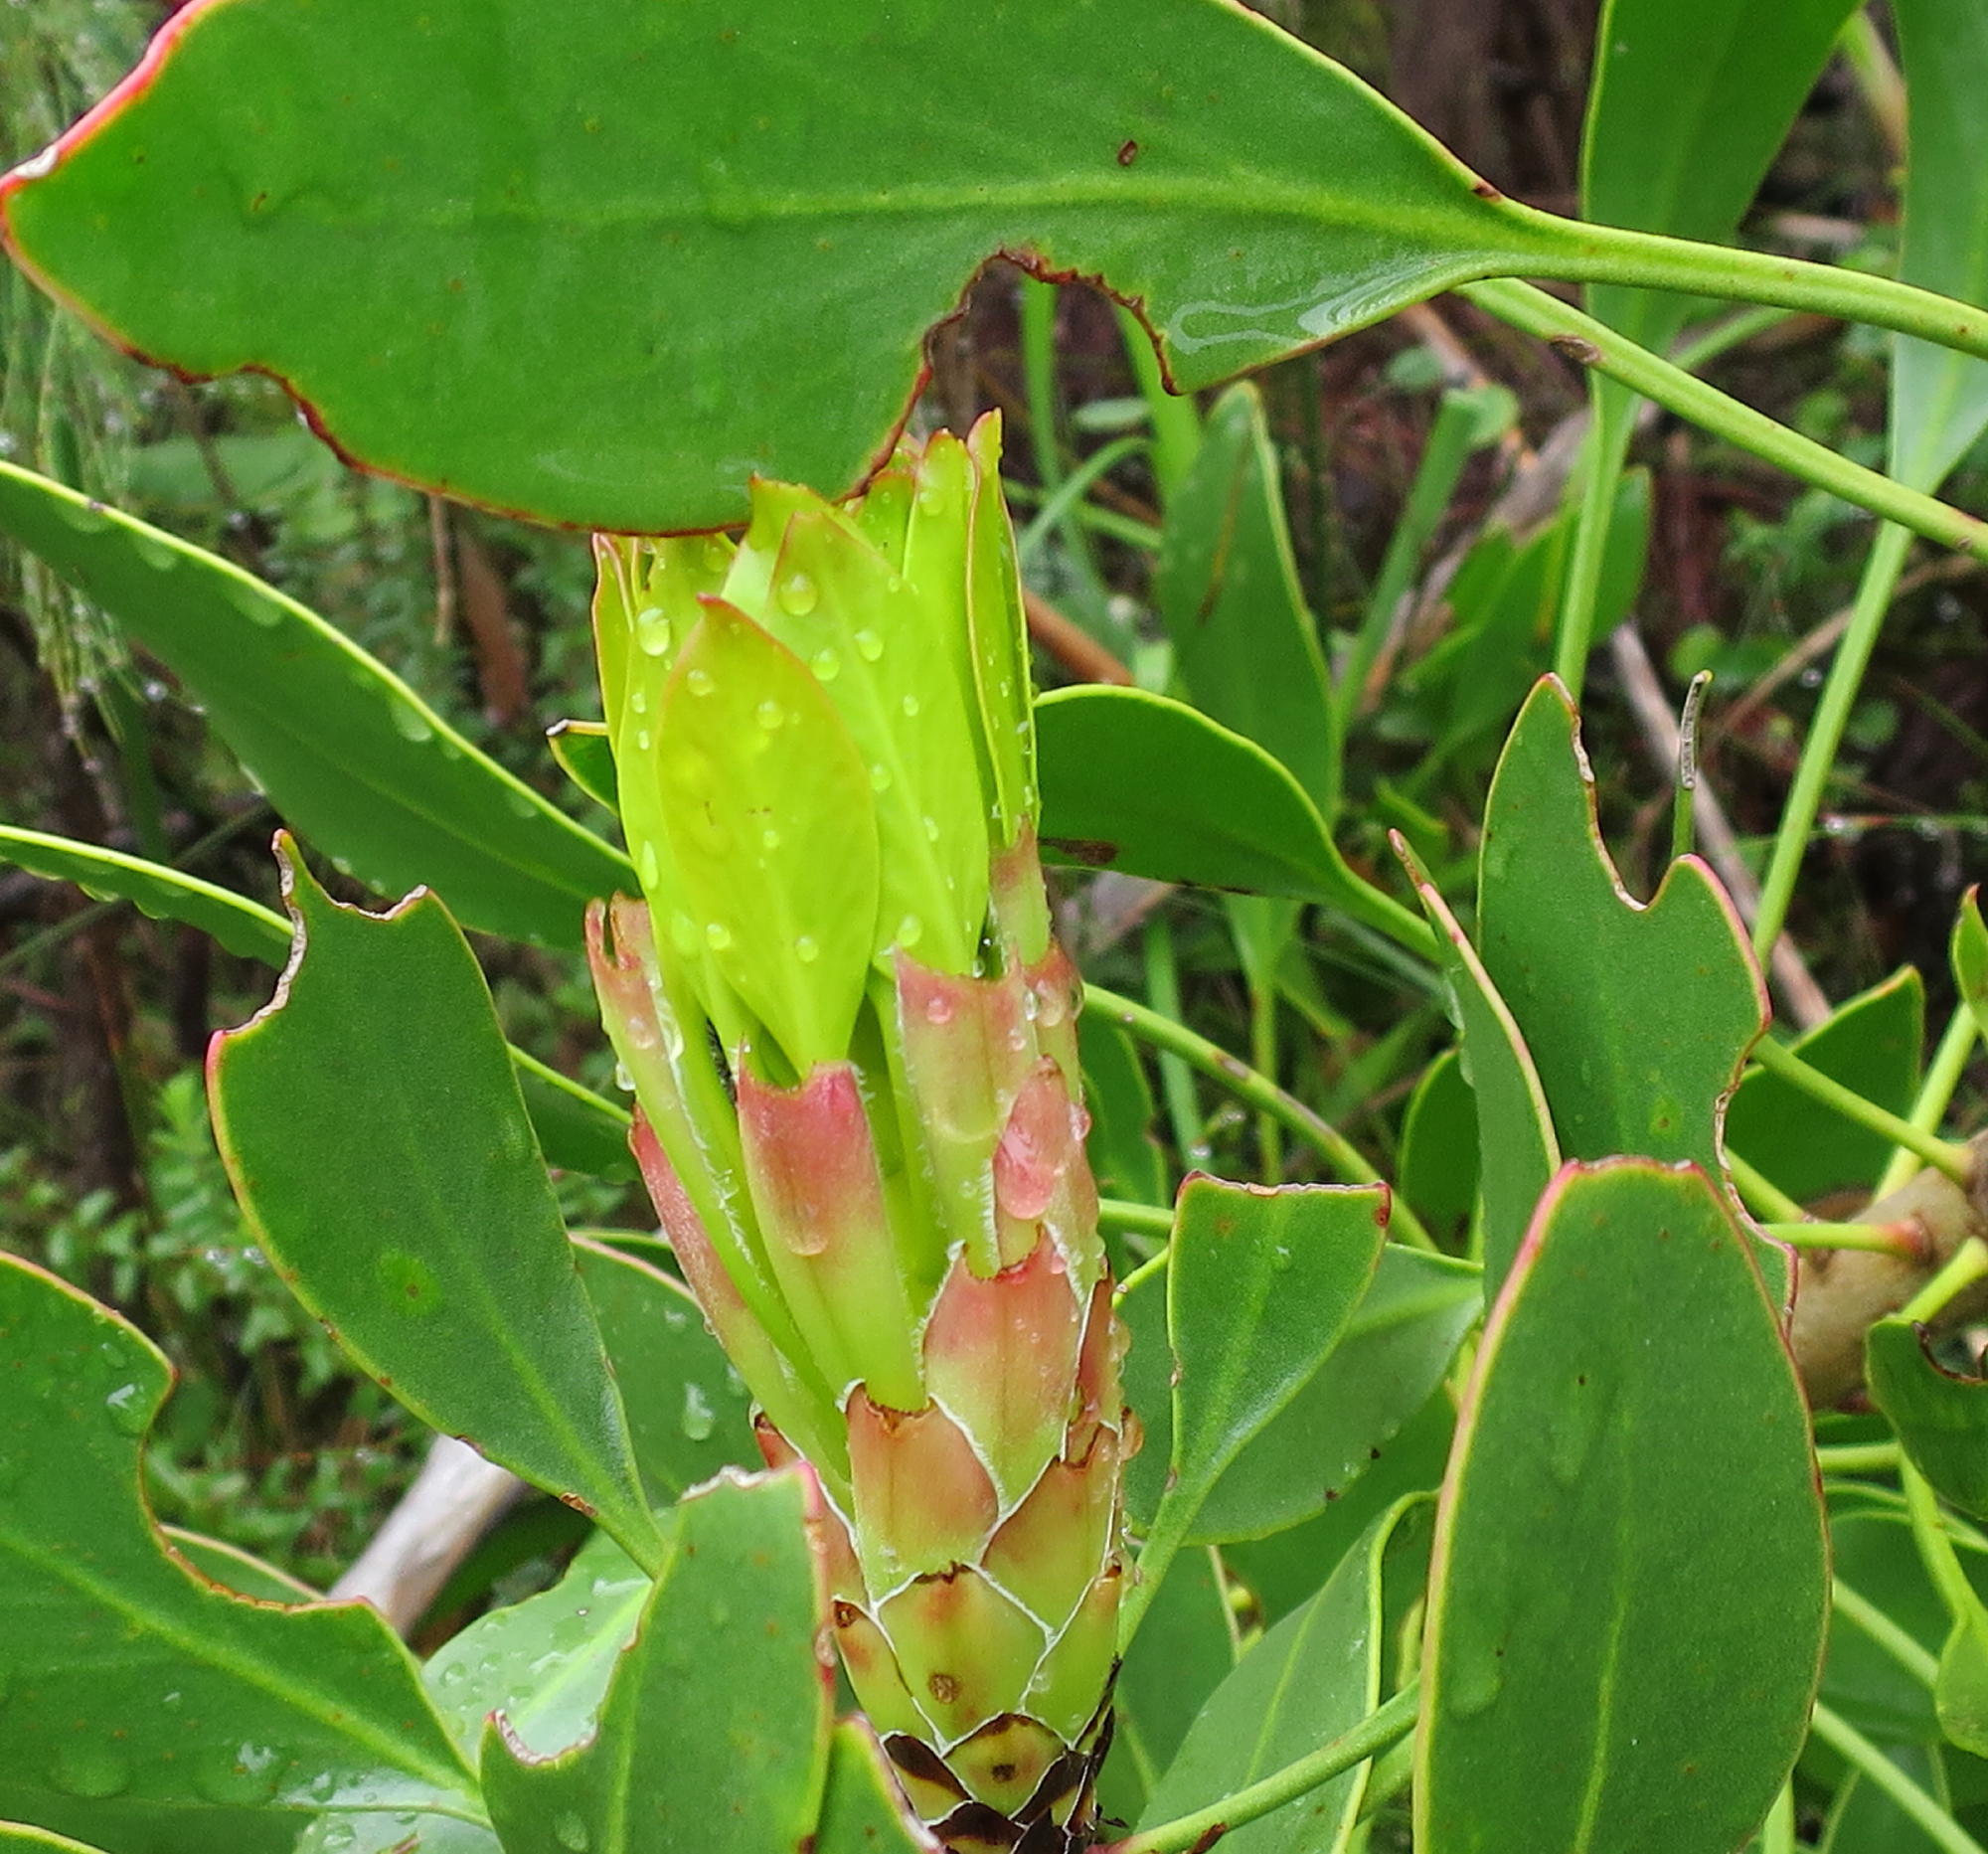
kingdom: Plantae
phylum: Tracheophyta
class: Magnoliopsida
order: Proteales
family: Proteaceae
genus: Protea
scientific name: Protea cynaroides
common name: King protea
